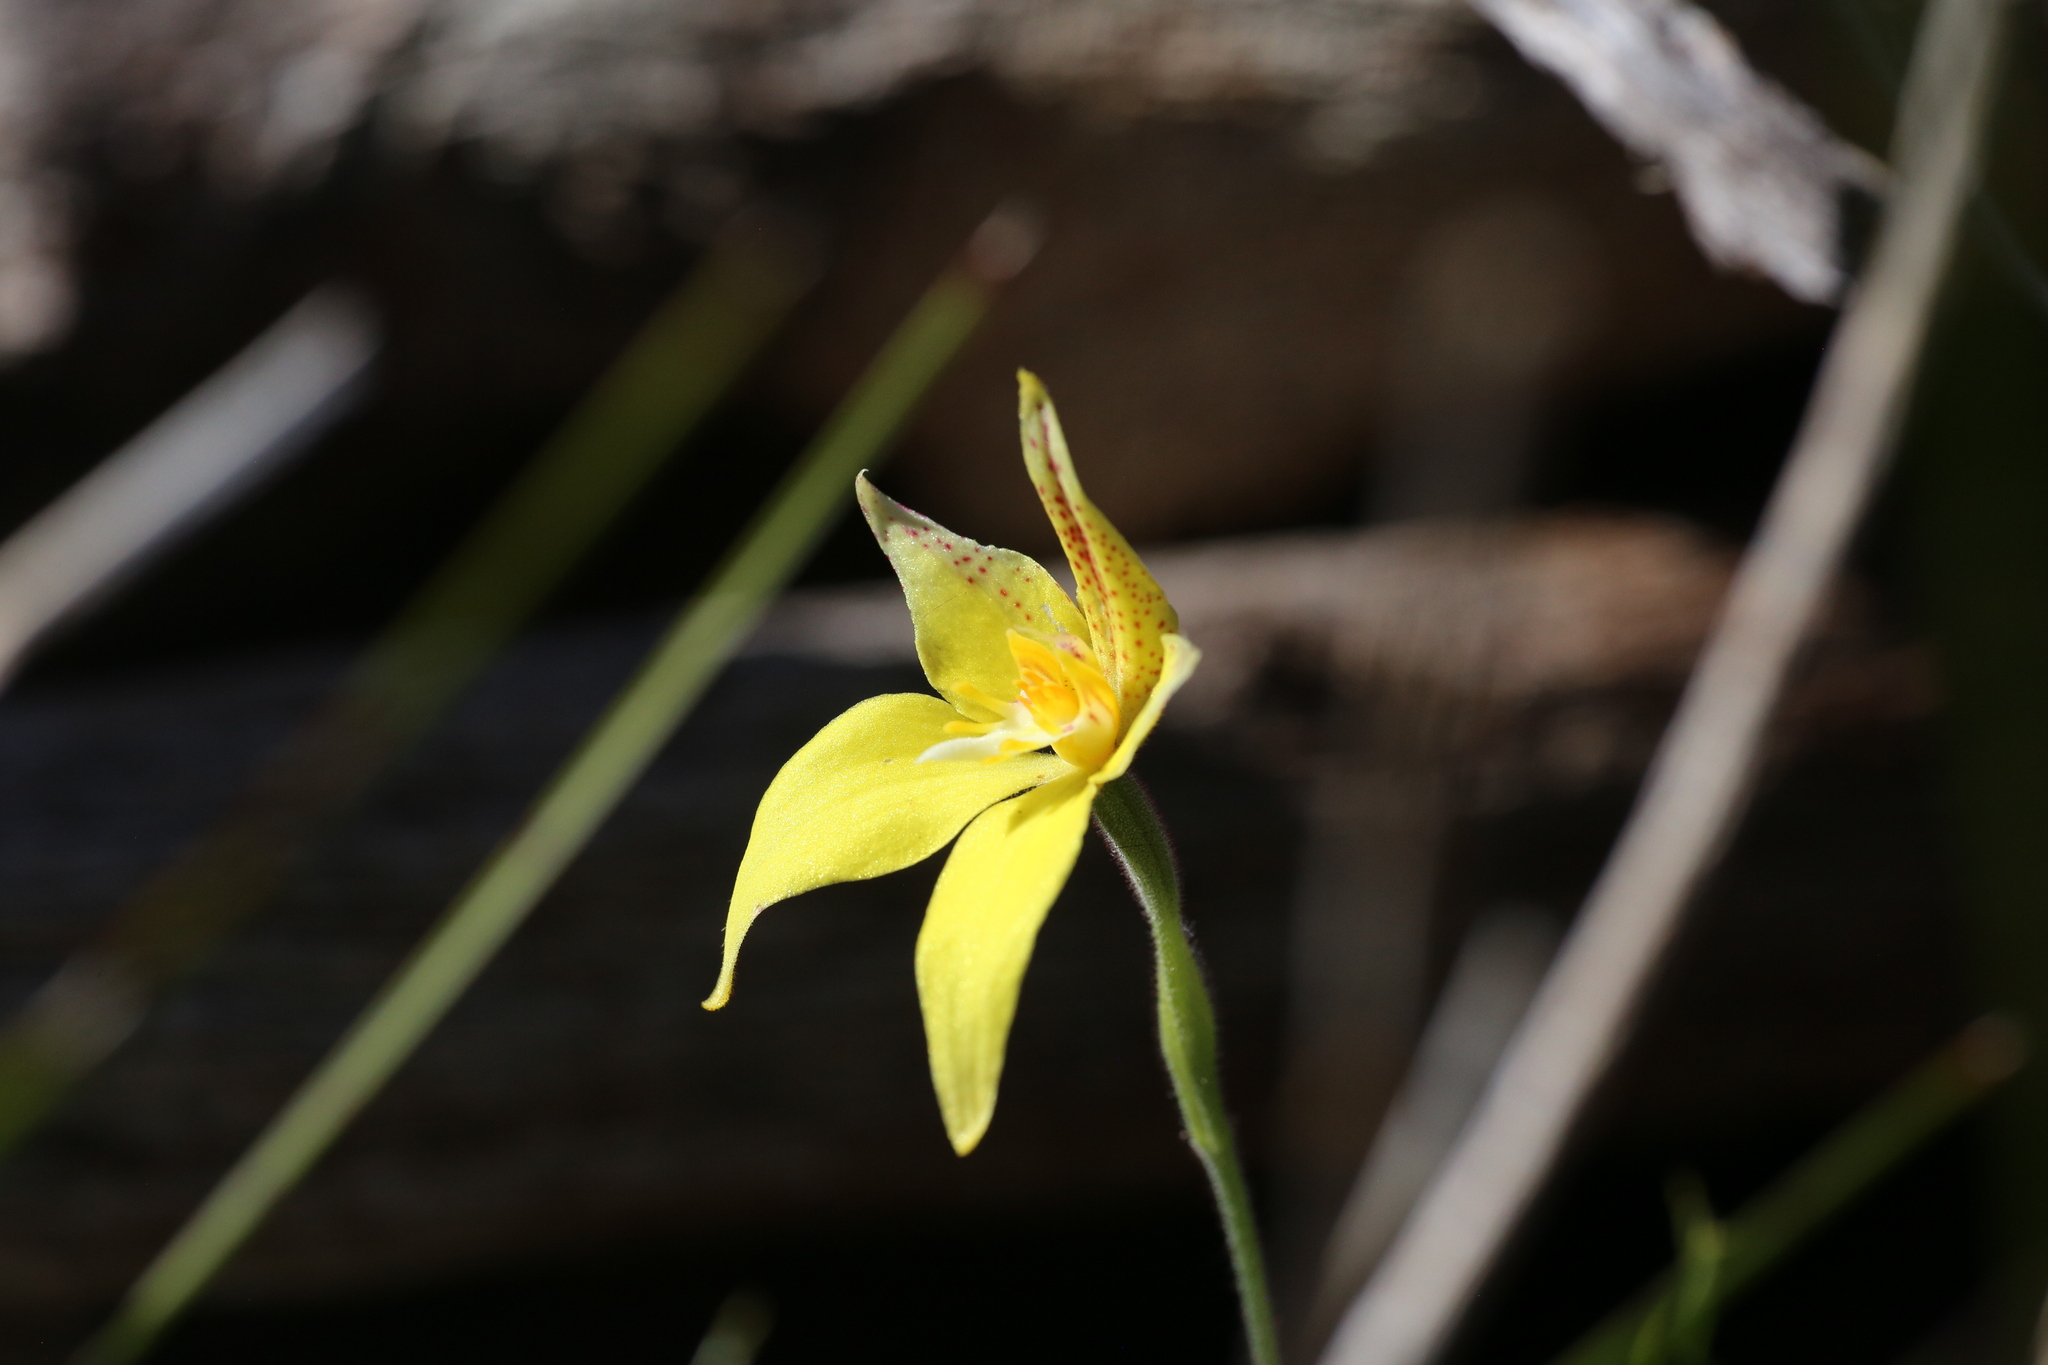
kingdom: Plantae
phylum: Tracheophyta
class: Liliopsida
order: Asparagales
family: Orchidaceae
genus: Caladenia
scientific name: Caladenia flava
